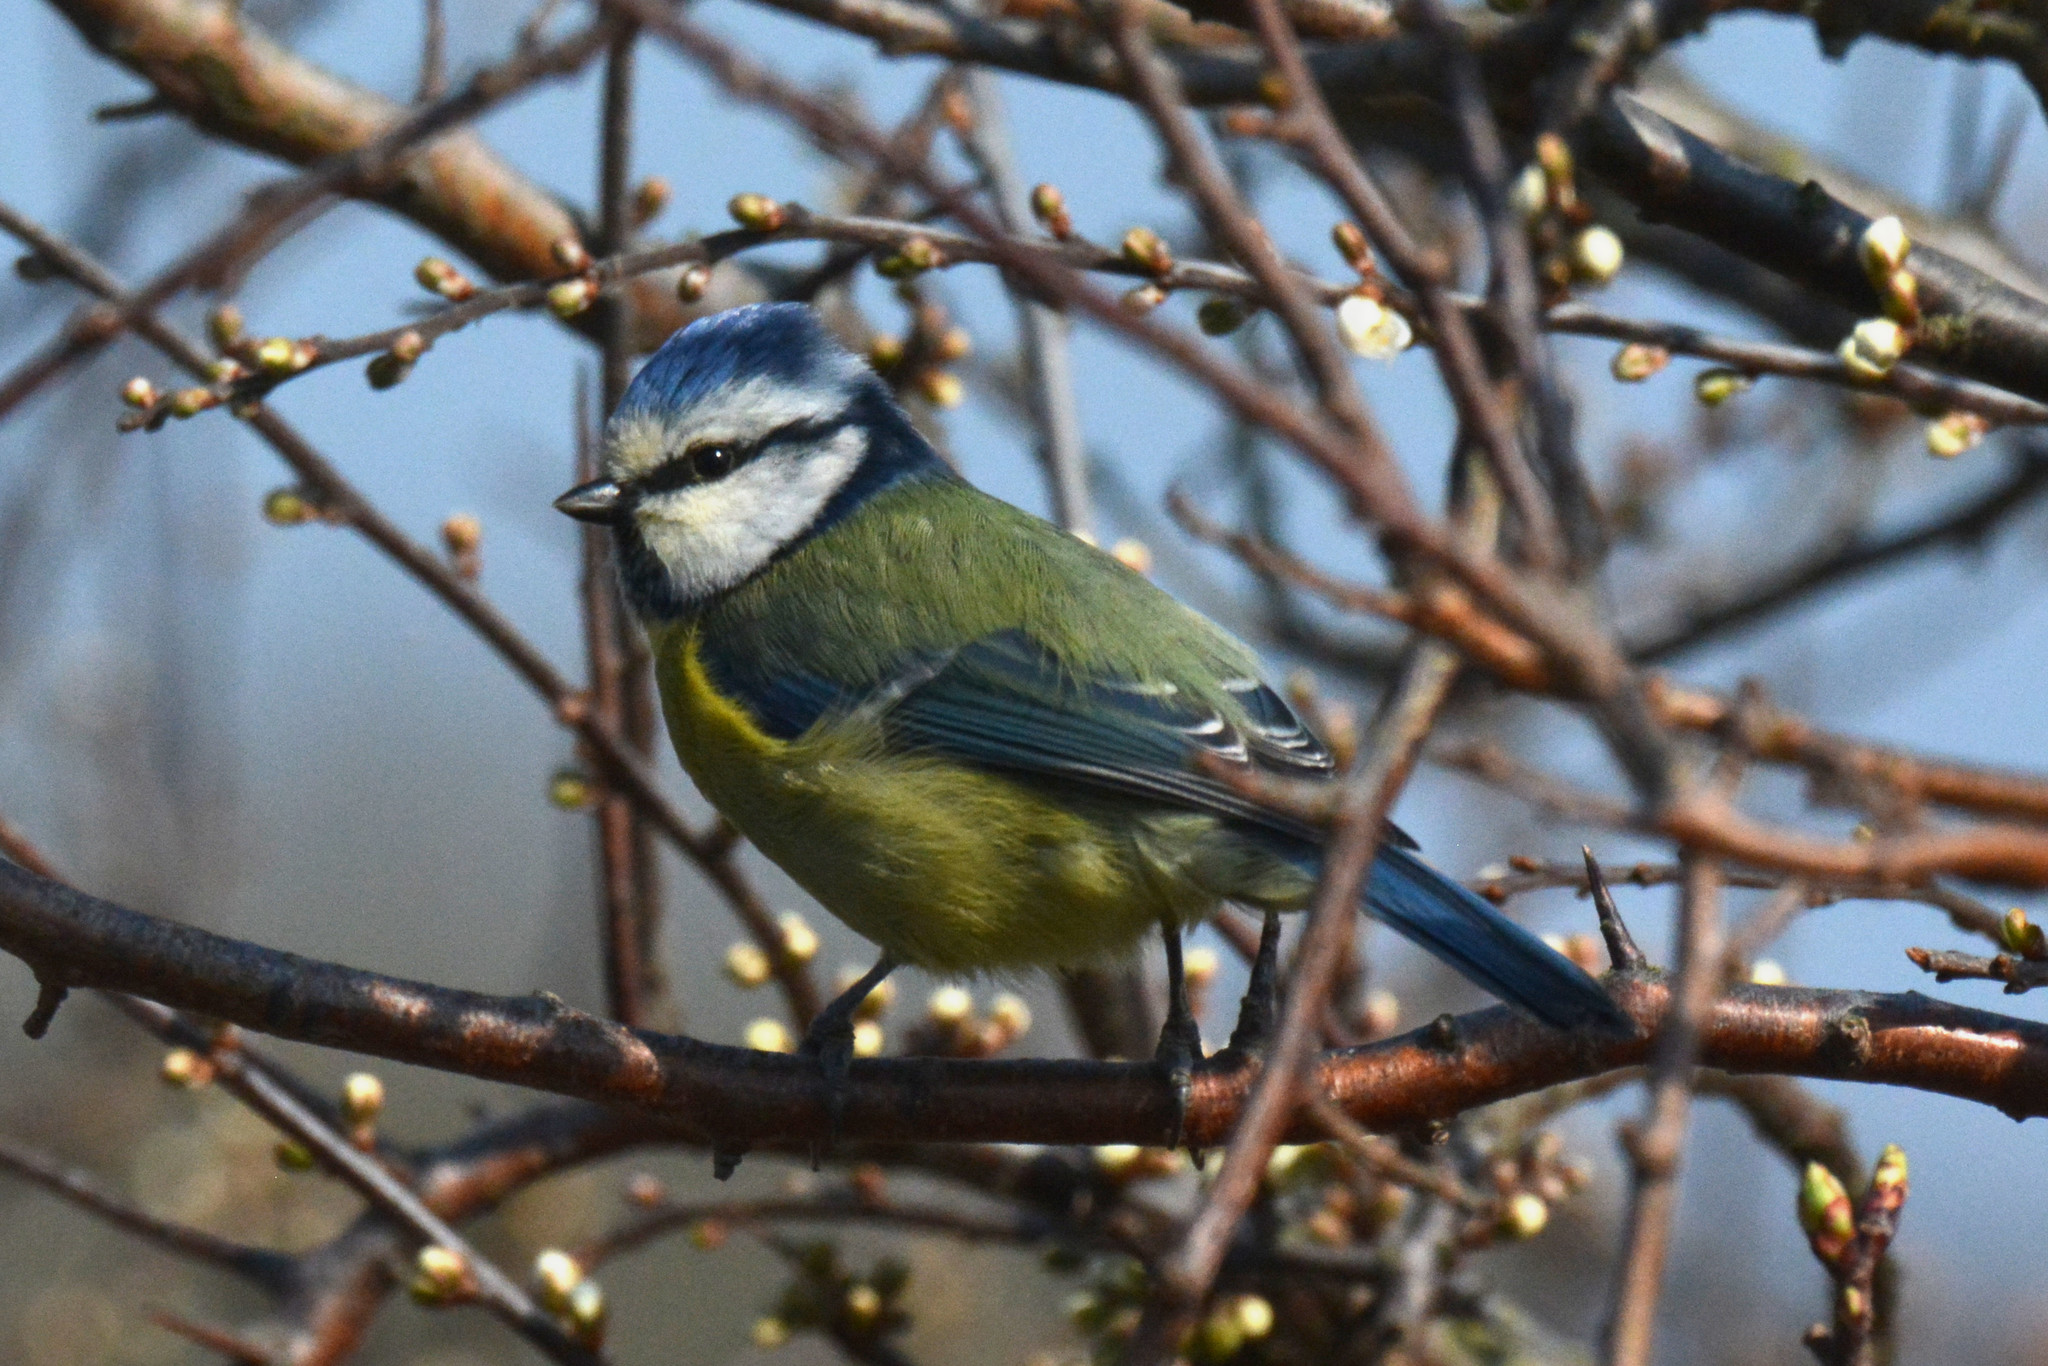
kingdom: Animalia
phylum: Chordata
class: Aves
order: Passeriformes
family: Paridae
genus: Cyanistes
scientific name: Cyanistes caeruleus
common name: Eurasian blue tit
